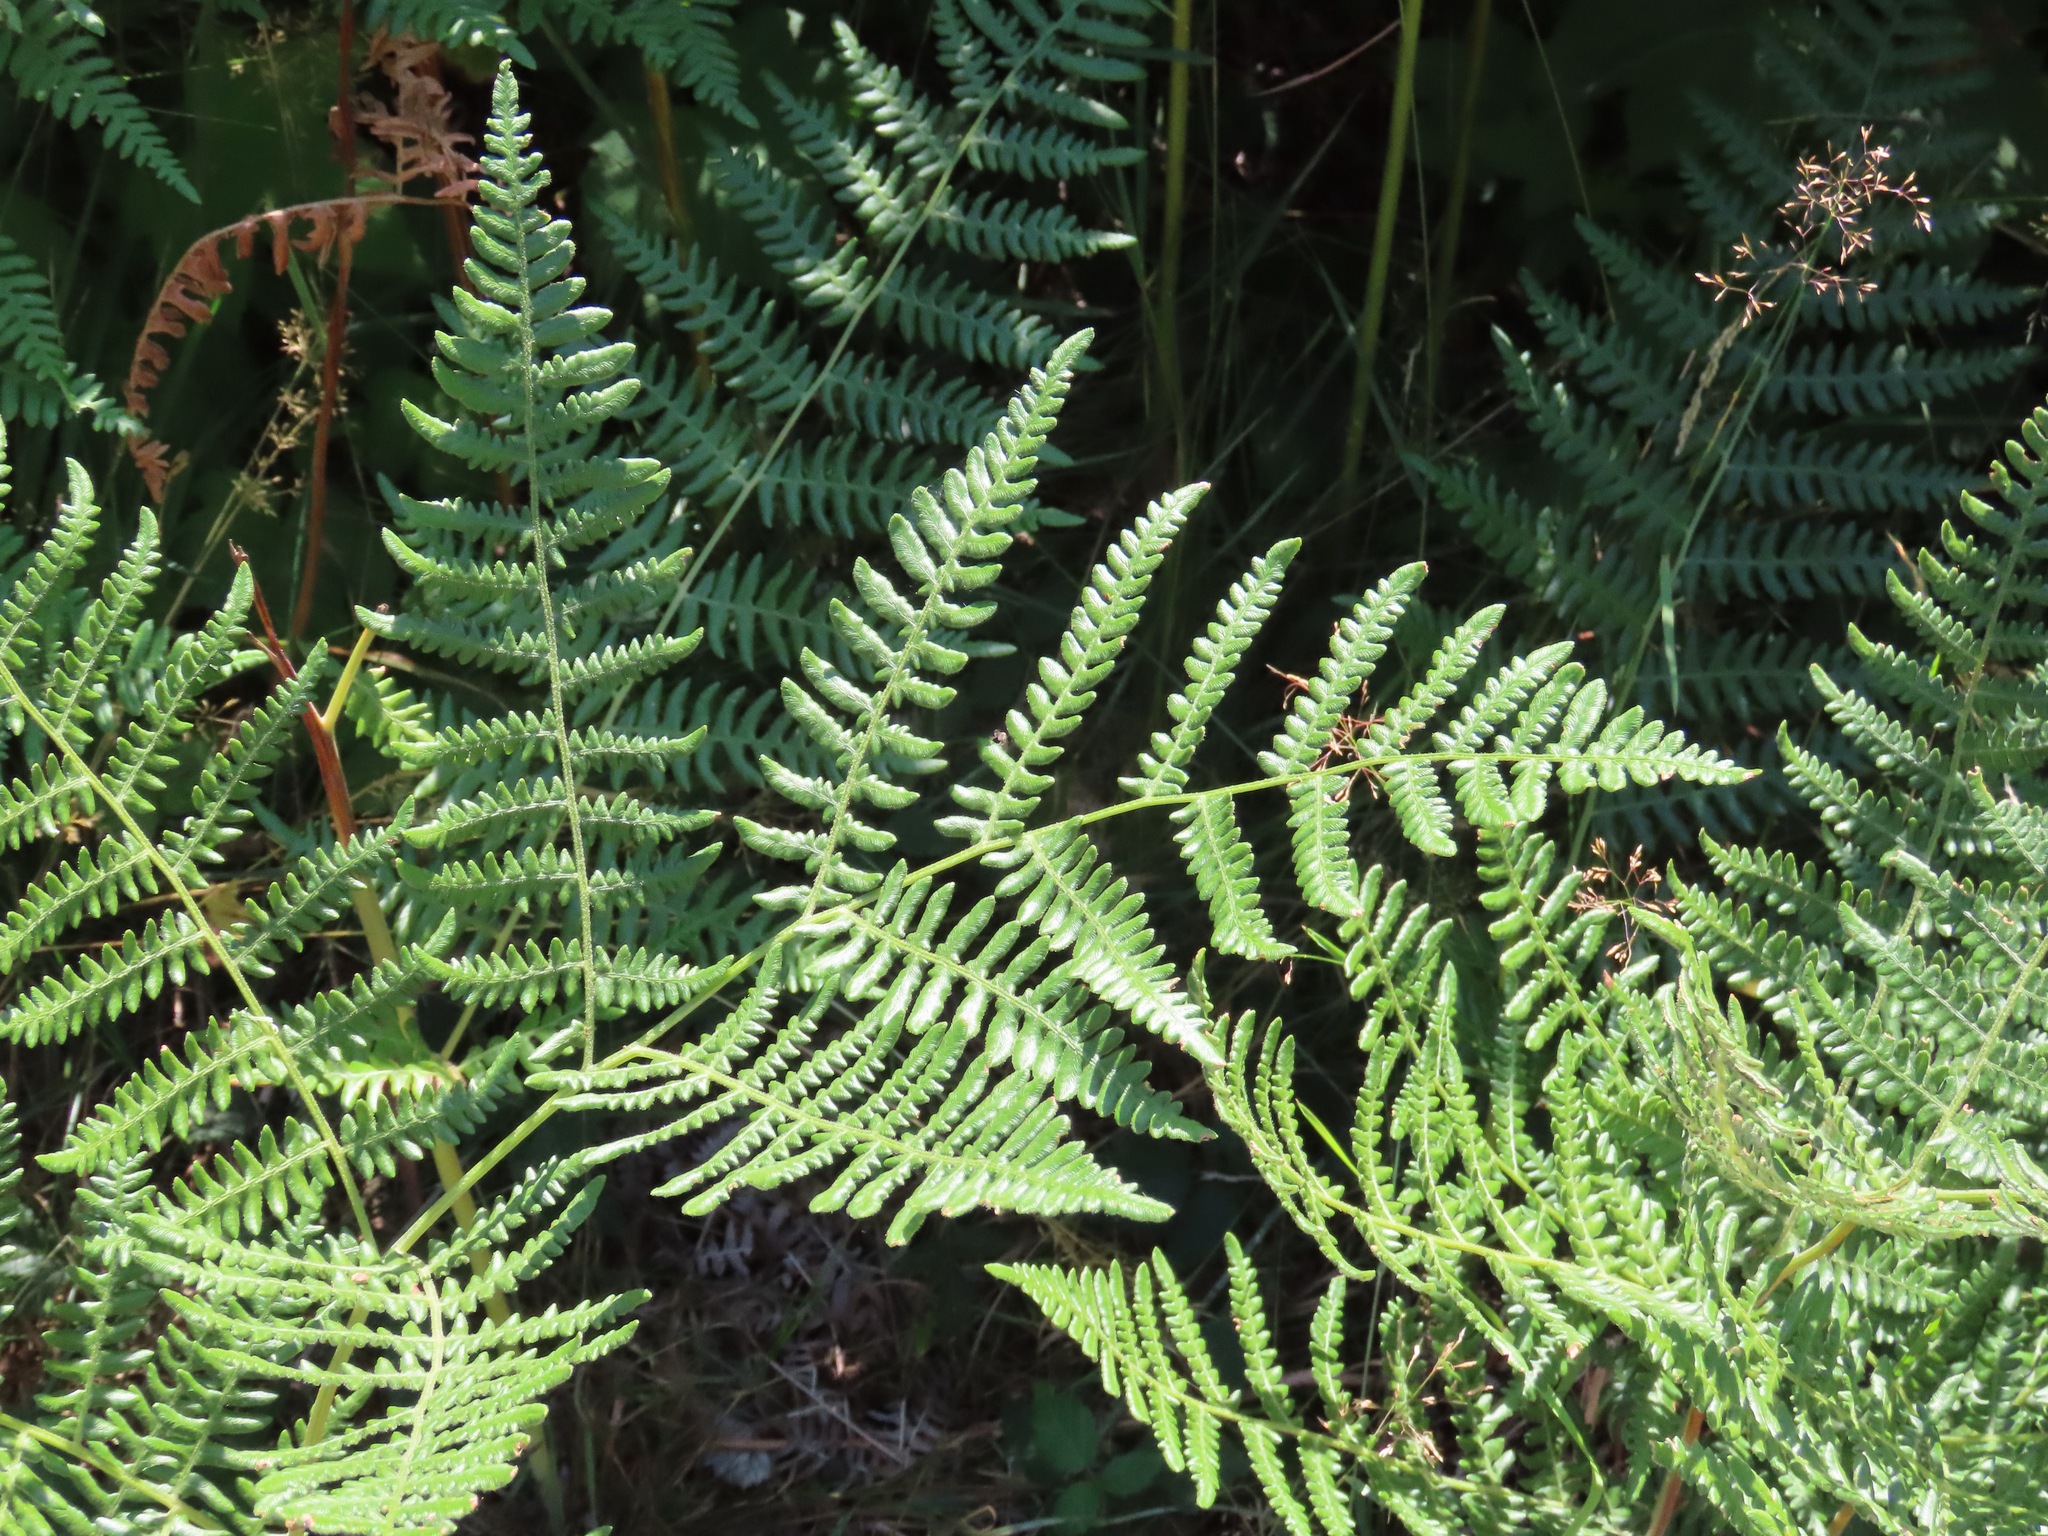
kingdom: Plantae
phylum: Tracheophyta
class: Polypodiopsida
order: Polypodiales
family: Dennstaedtiaceae
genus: Pteridium
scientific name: Pteridium aquilinum
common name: Bracken
